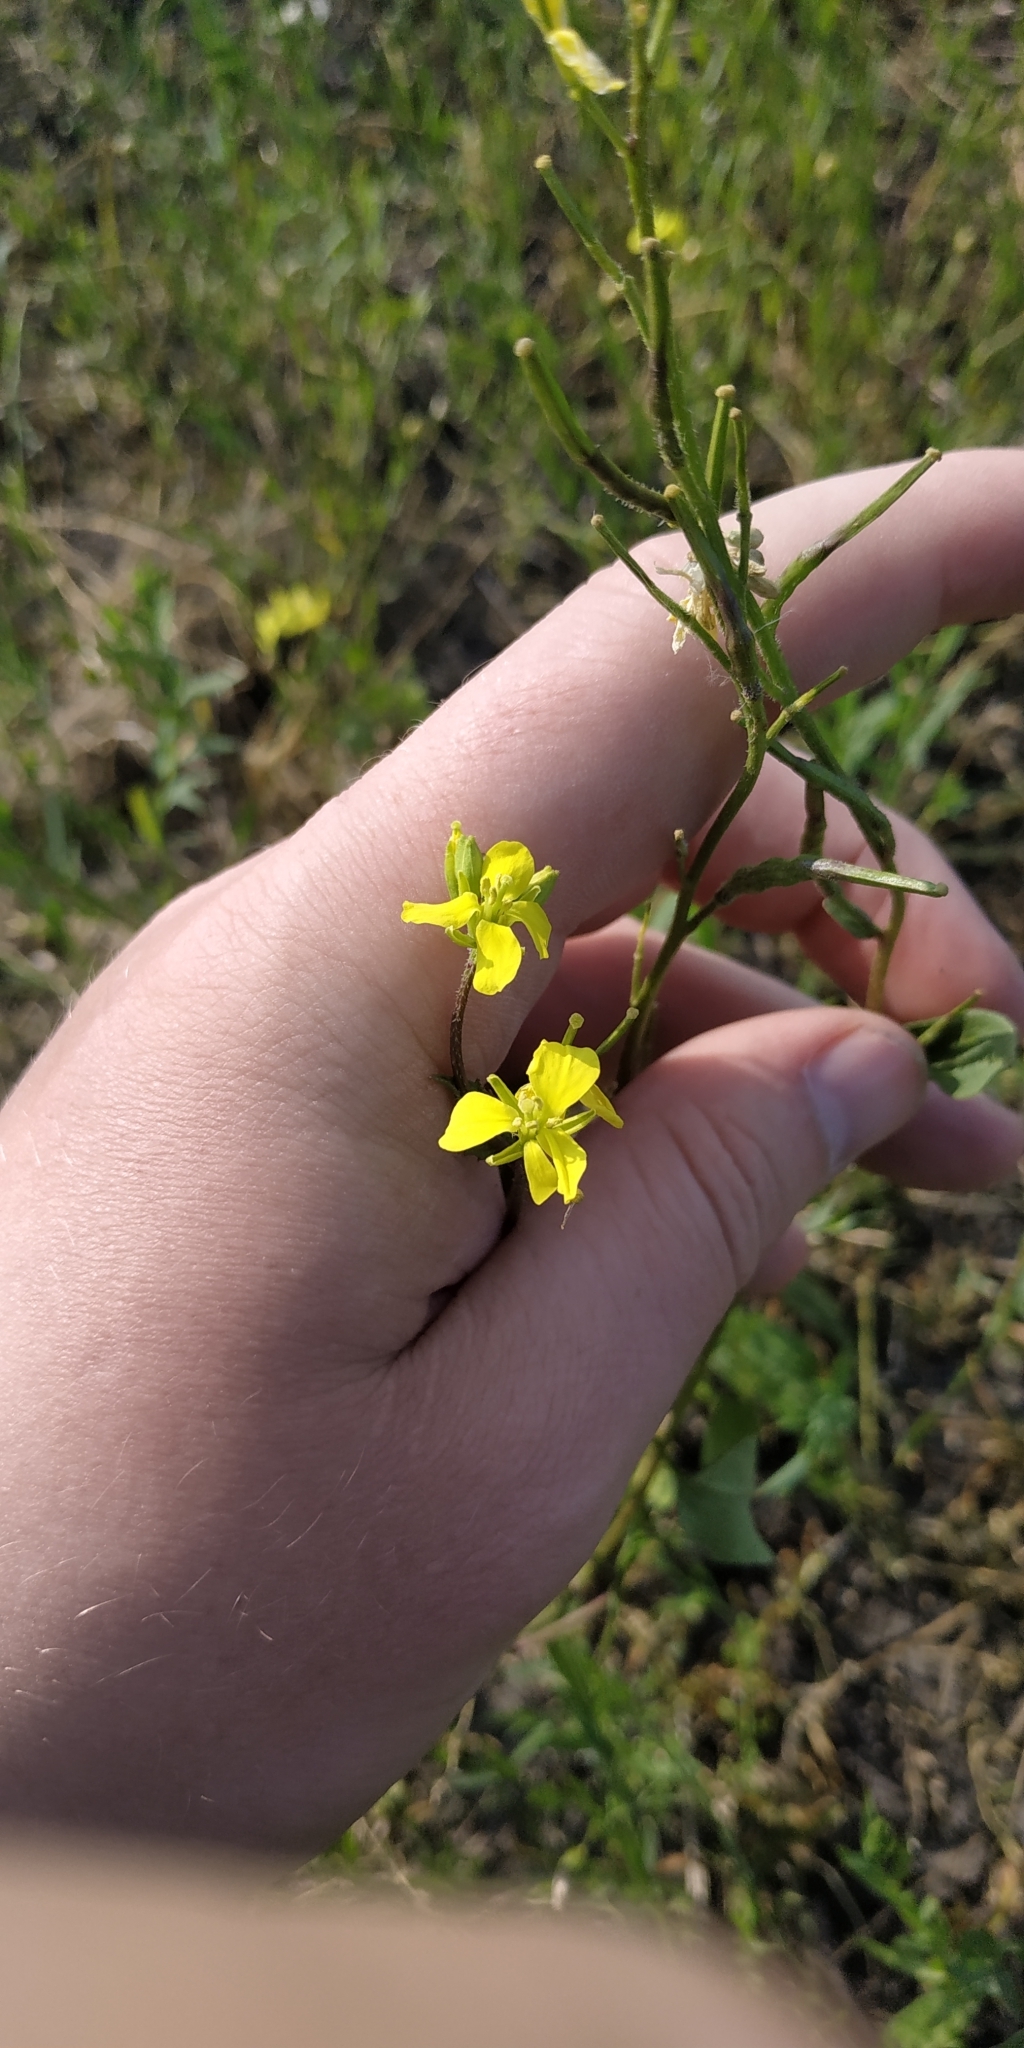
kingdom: Plantae
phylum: Tracheophyta
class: Magnoliopsida
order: Brassicales
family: Brassicaceae
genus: Sinapis
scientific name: Sinapis arvensis
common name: Charlock
